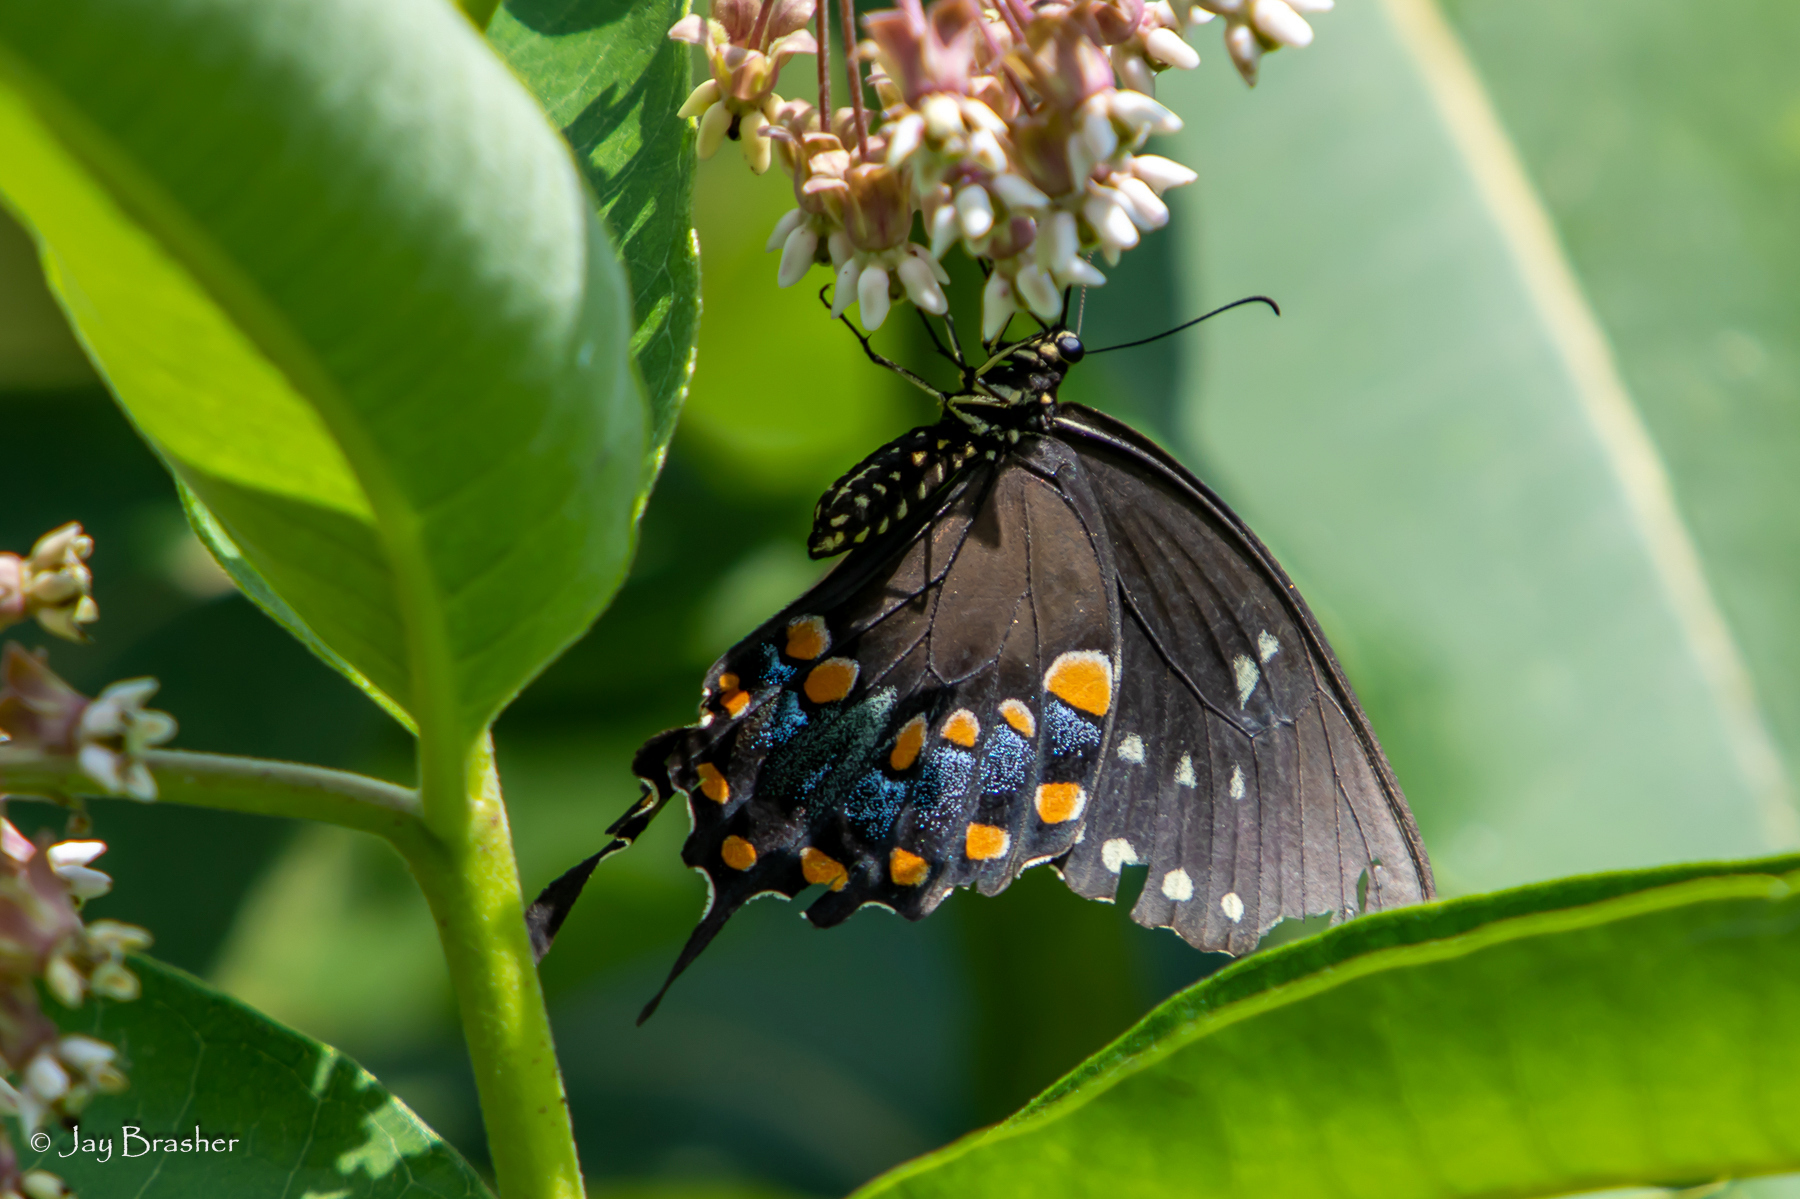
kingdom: Animalia
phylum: Arthropoda
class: Insecta
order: Lepidoptera
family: Papilionidae
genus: Papilio
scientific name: Papilio troilus
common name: Spicebush swallowtail
